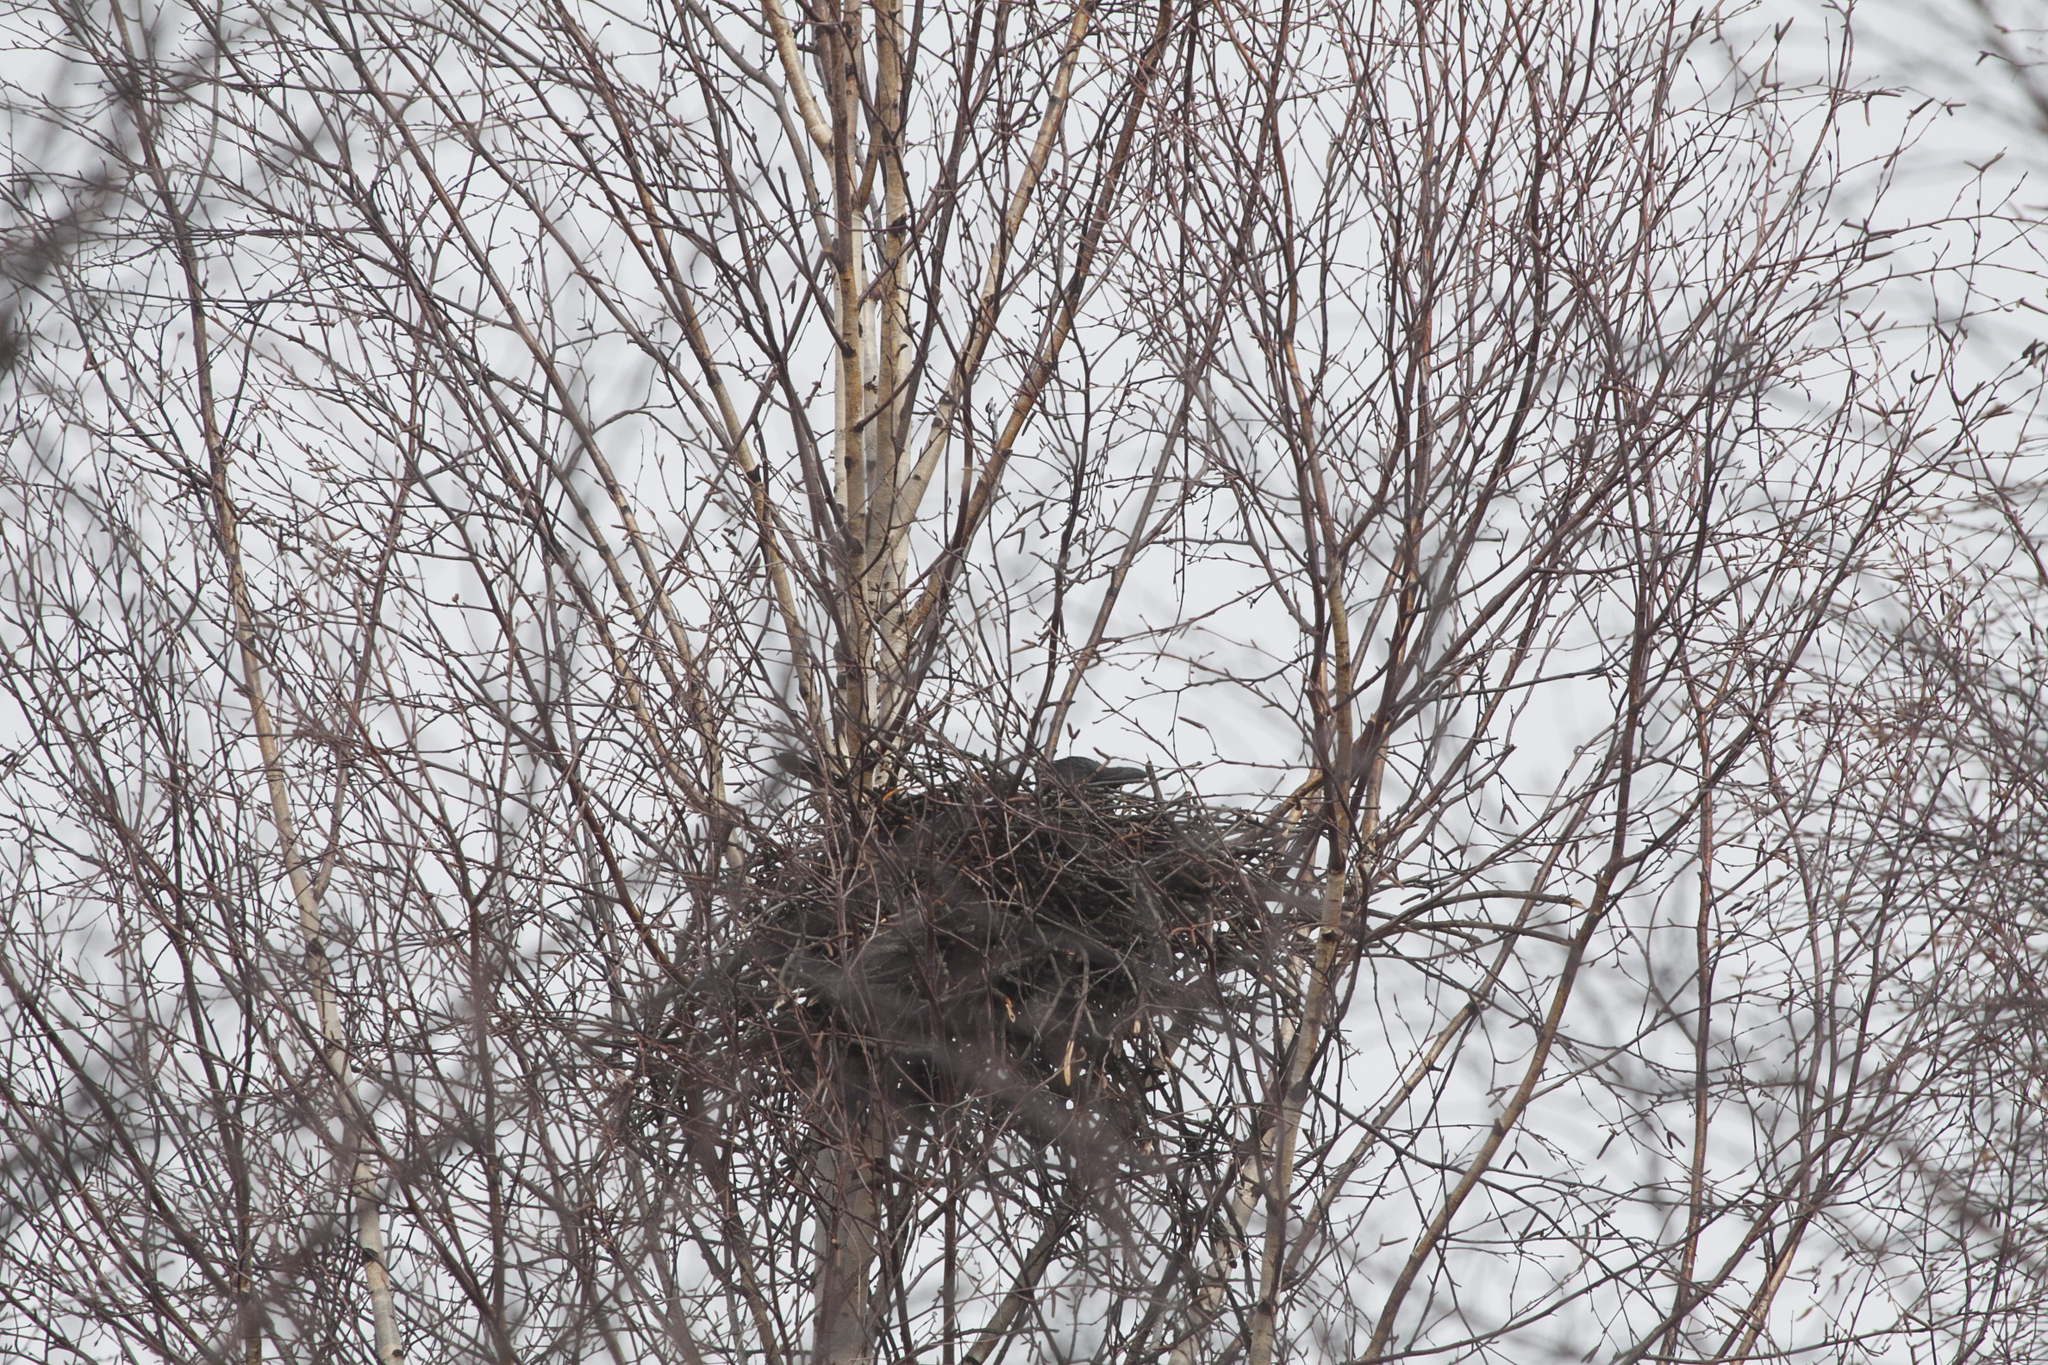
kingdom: Animalia
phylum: Chordata
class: Aves
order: Passeriformes
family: Corvidae
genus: Corvus
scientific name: Corvus cornix
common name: Hooded crow
